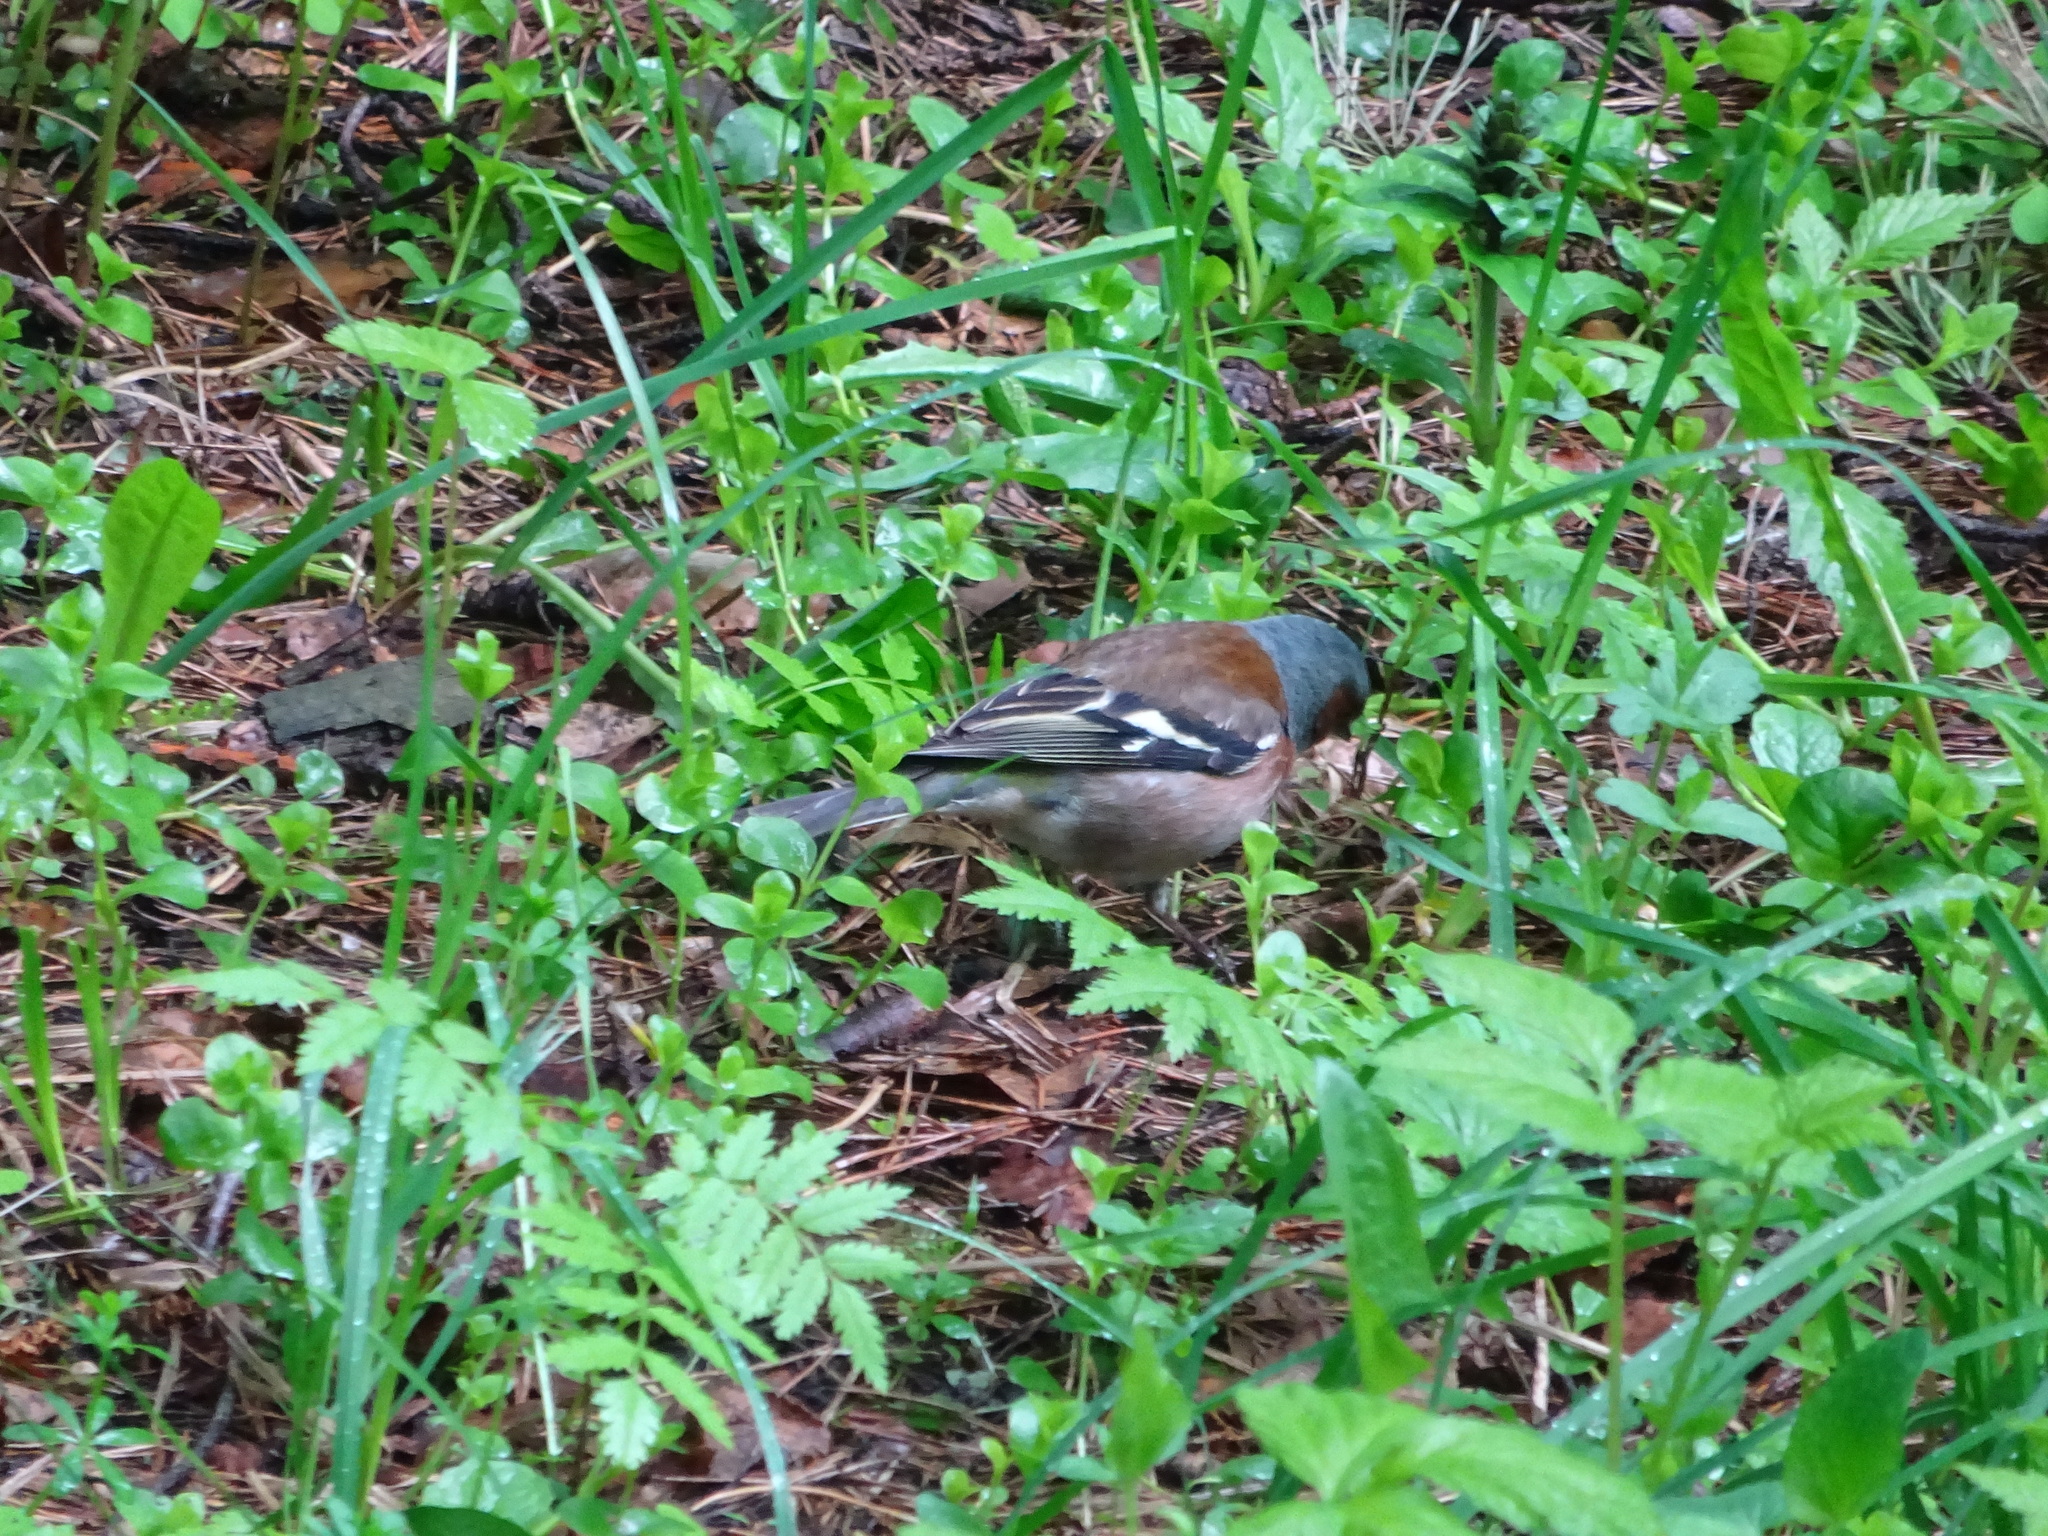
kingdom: Animalia
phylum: Chordata
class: Aves
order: Passeriformes
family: Fringillidae
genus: Fringilla
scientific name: Fringilla coelebs
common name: Common chaffinch
